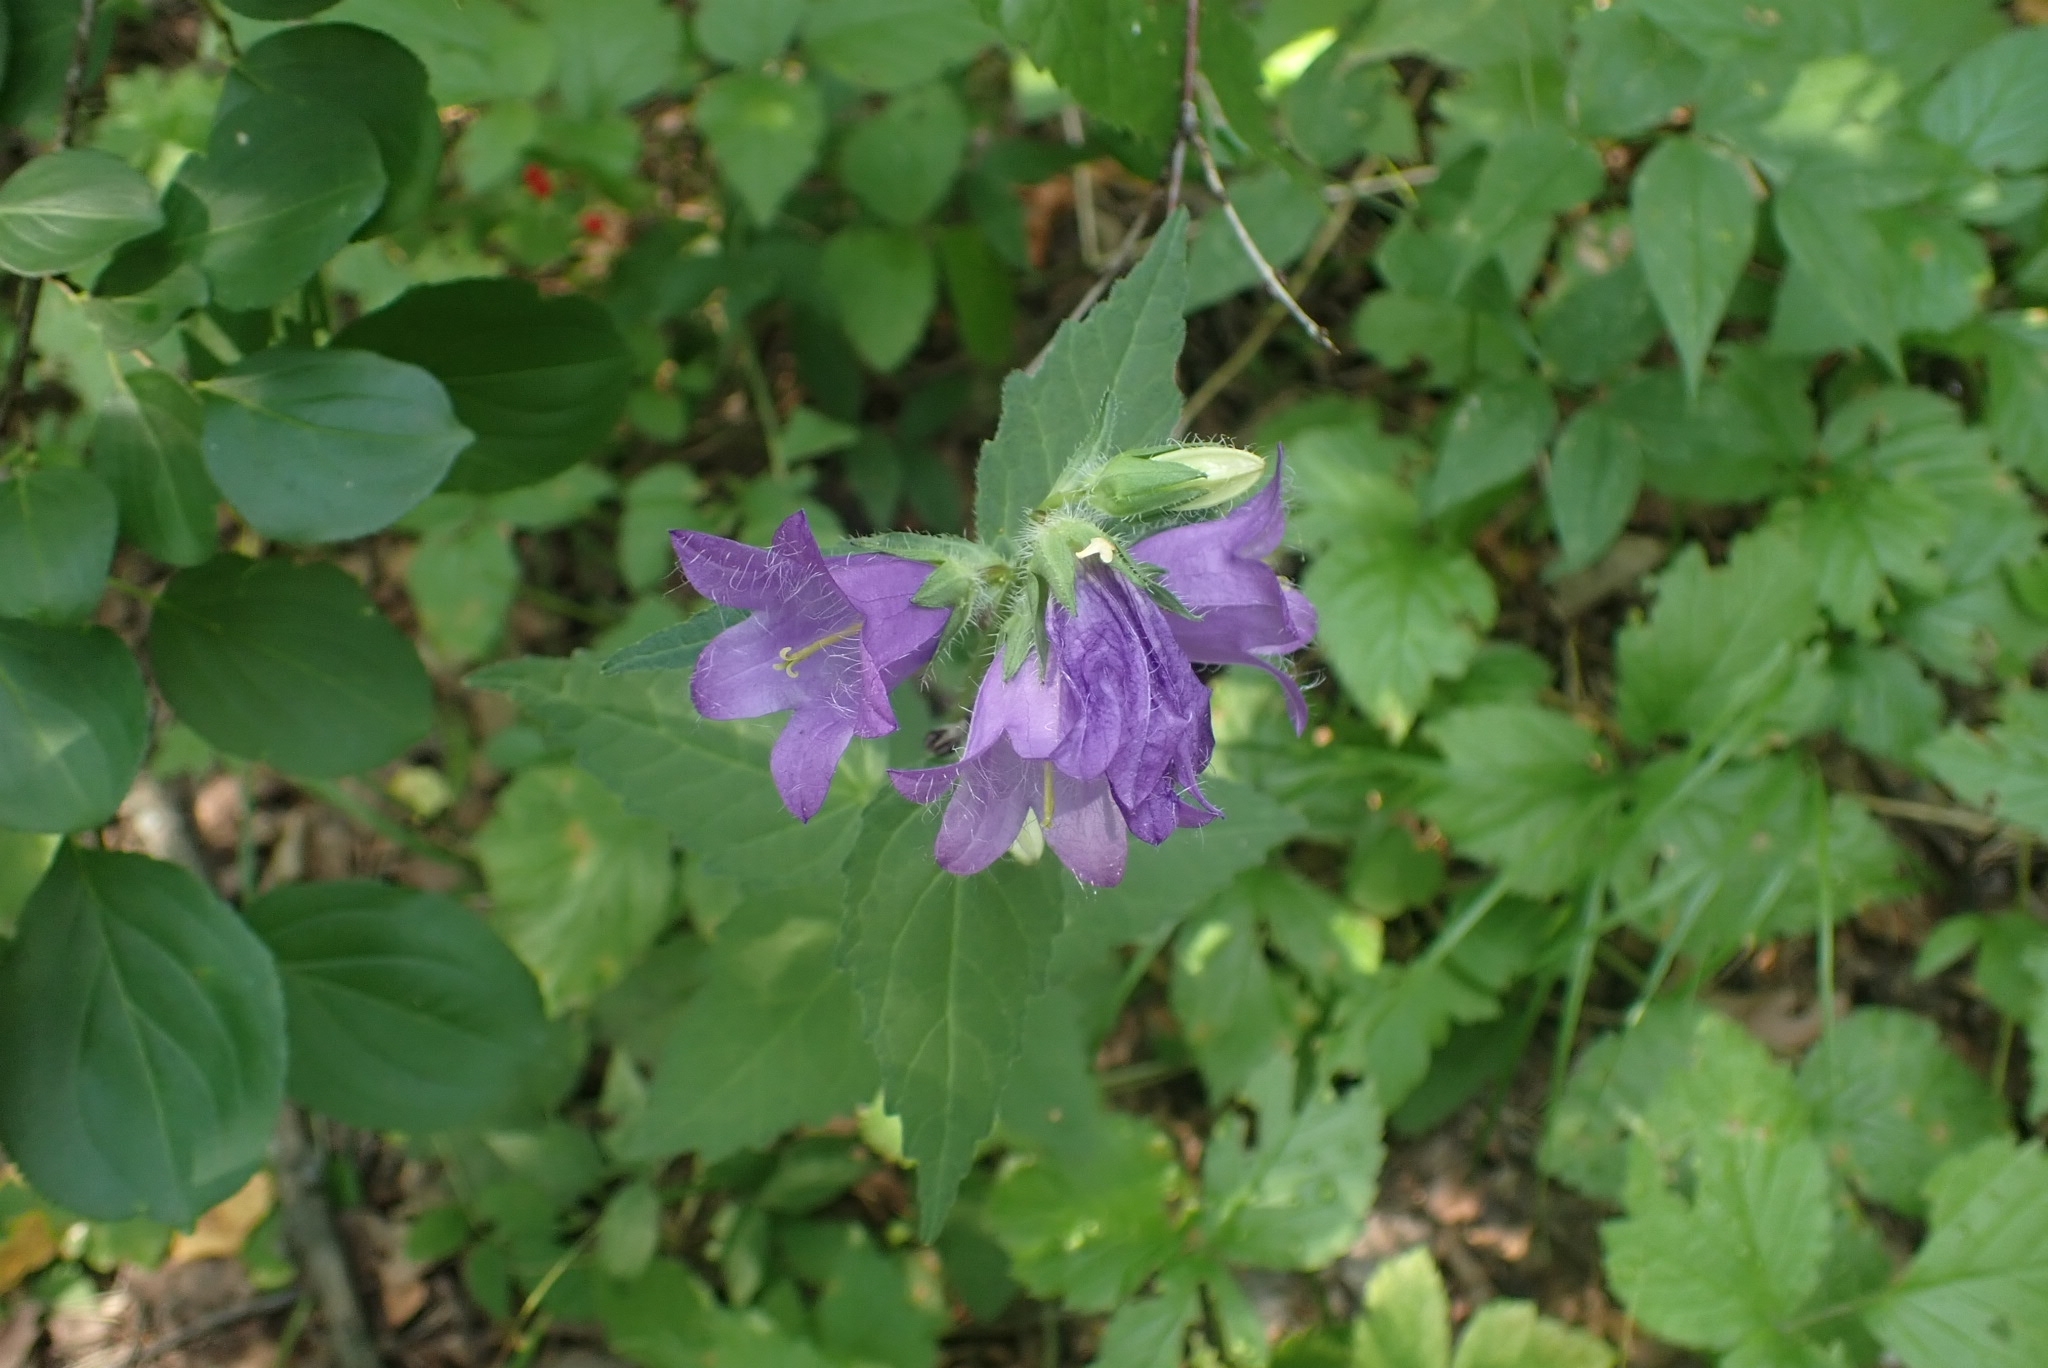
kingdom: Plantae
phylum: Tracheophyta
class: Magnoliopsida
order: Asterales
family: Campanulaceae
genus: Campanula
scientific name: Campanula trachelium
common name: Nettle-leaved bellflower
